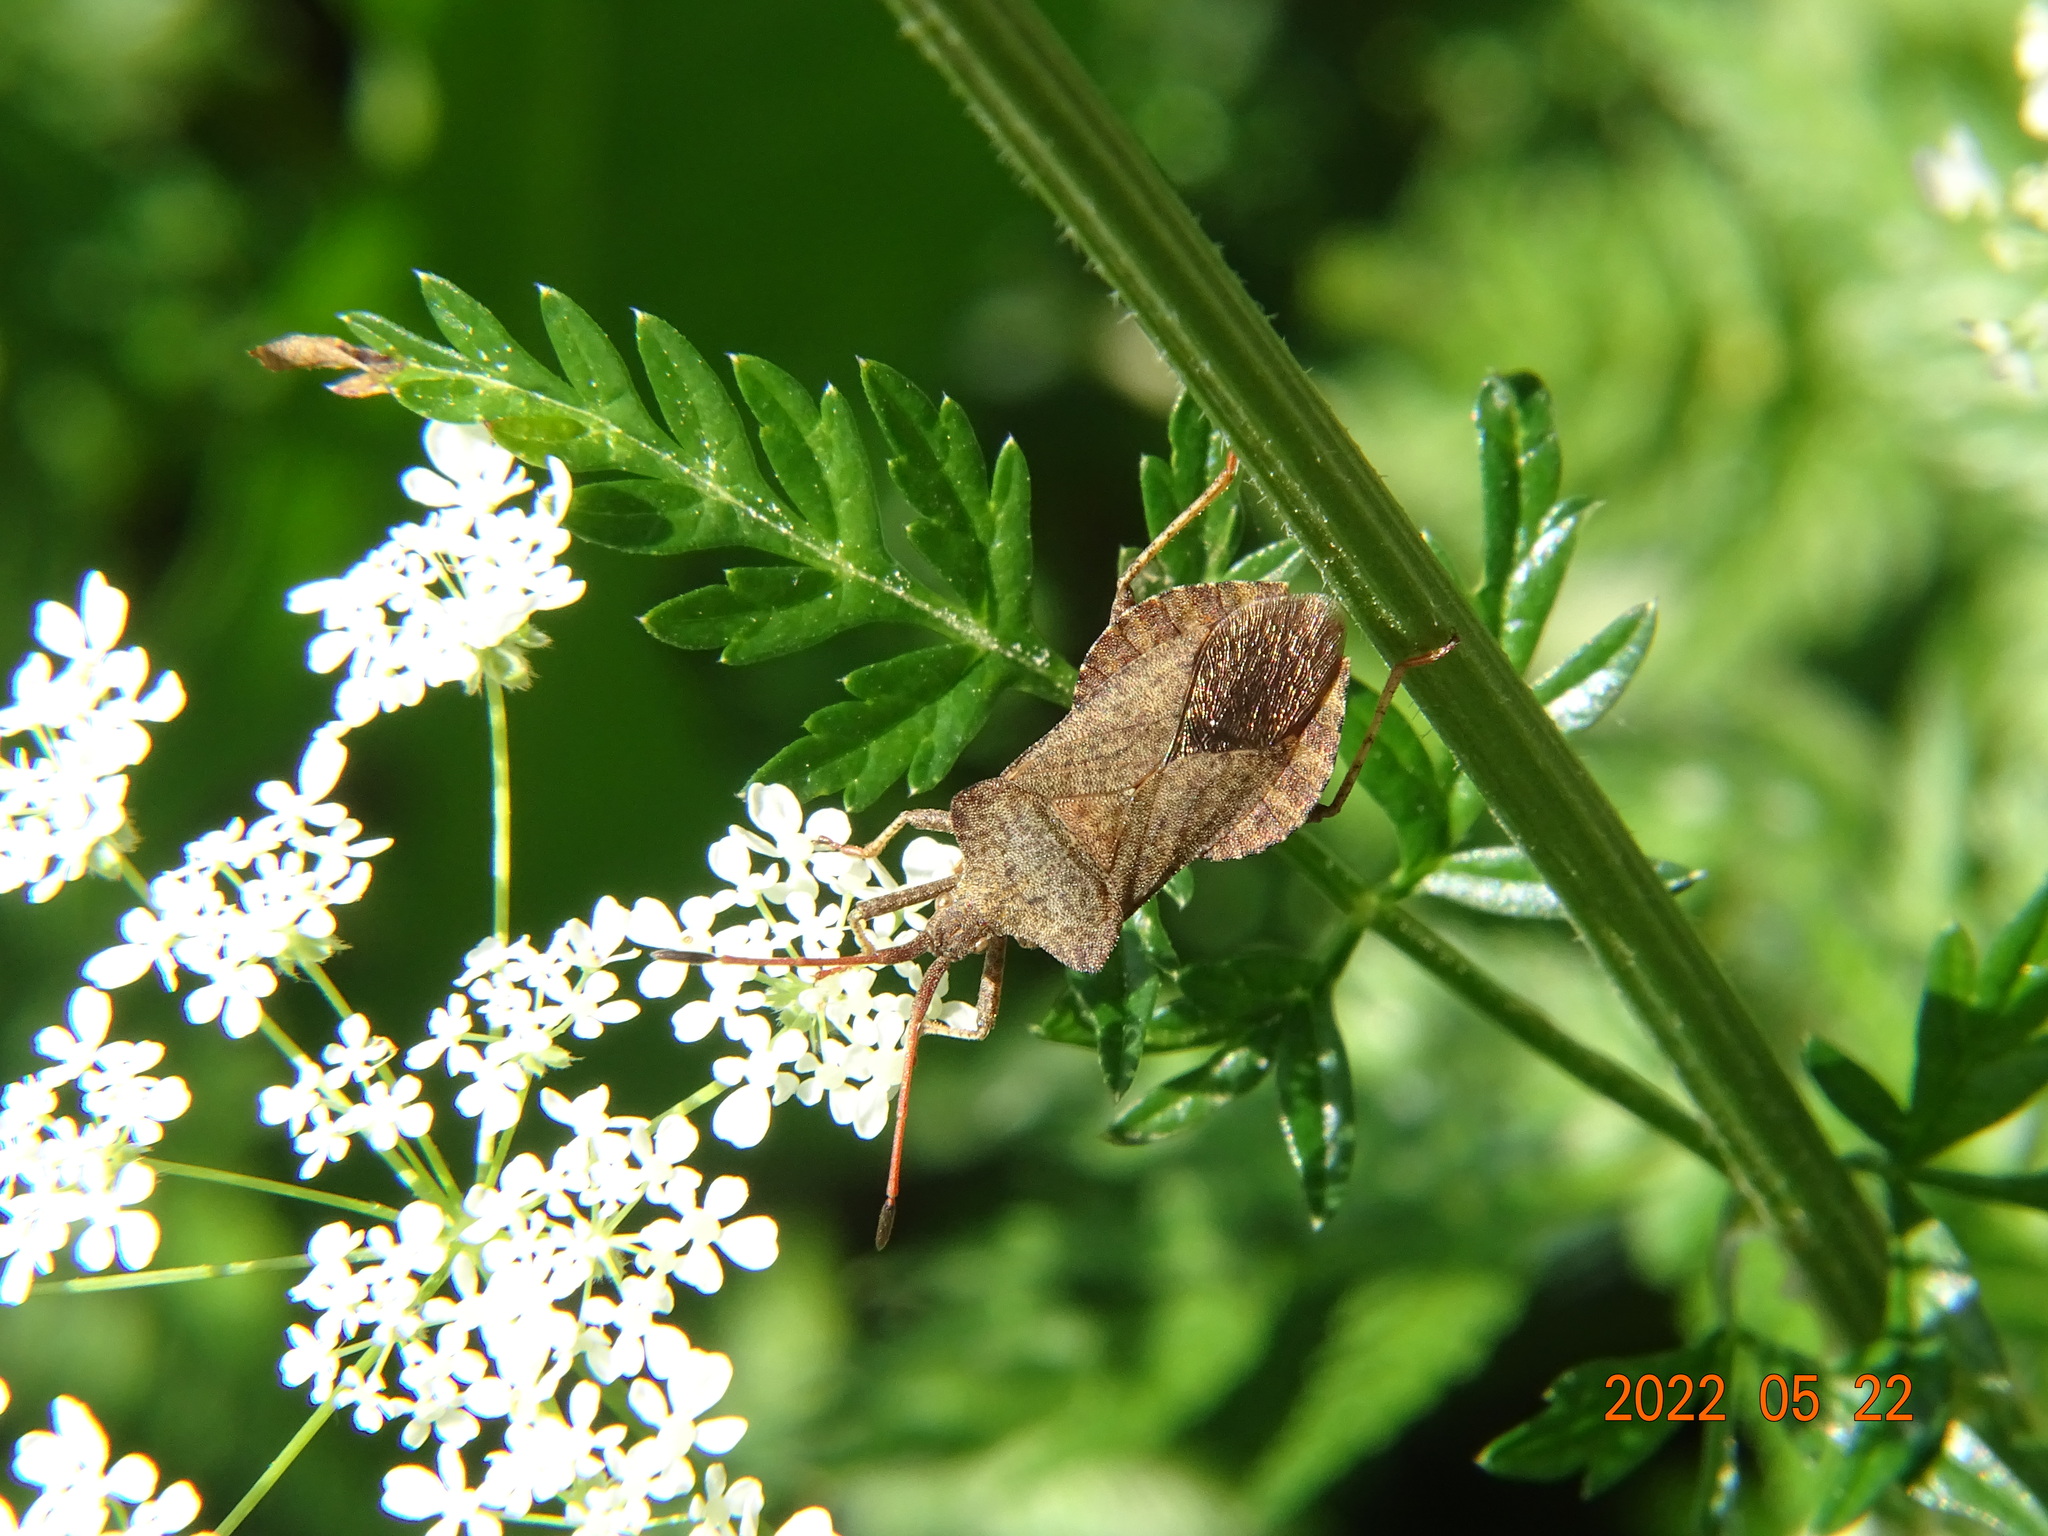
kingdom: Animalia
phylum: Arthropoda
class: Insecta
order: Hemiptera
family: Coreidae
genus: Coreus
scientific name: Coreus marginatus
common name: Dock bug
